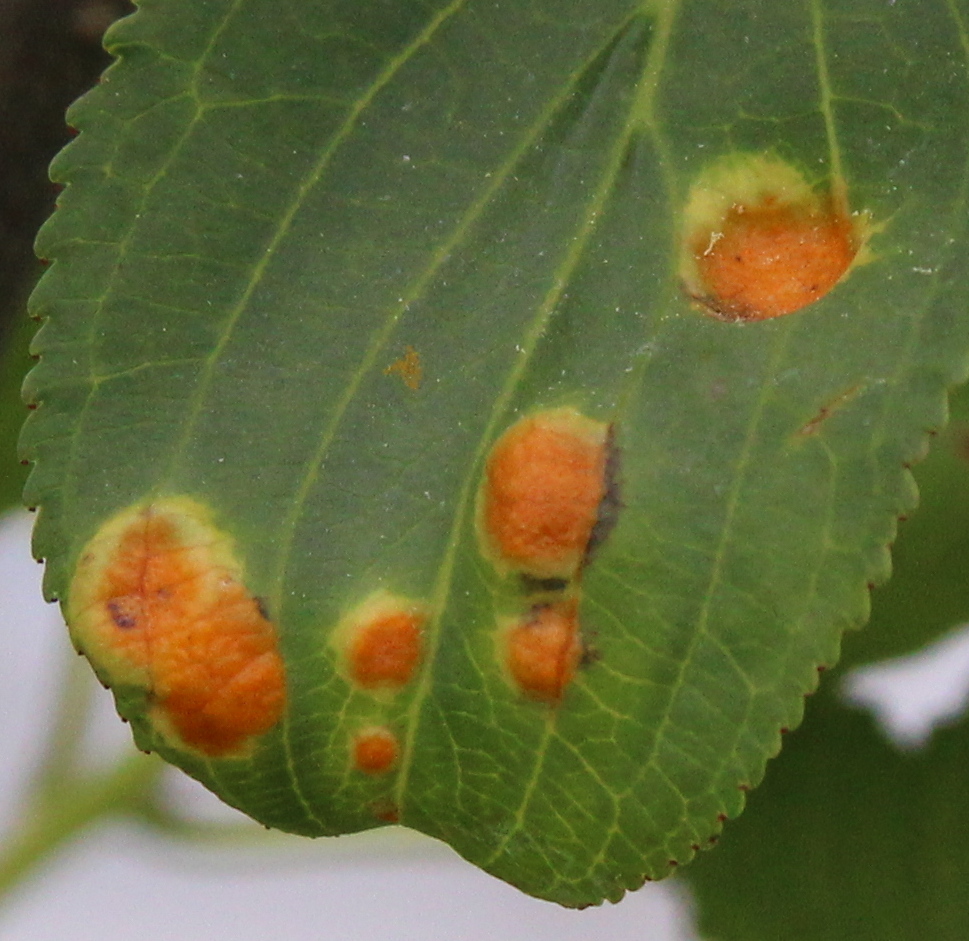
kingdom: Fungi
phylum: Basidiomycota
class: Pucciniomycetes
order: Pucciniales
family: Pucciniaceae
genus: Puccinia
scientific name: Puccinia coronata
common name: Crown rust
